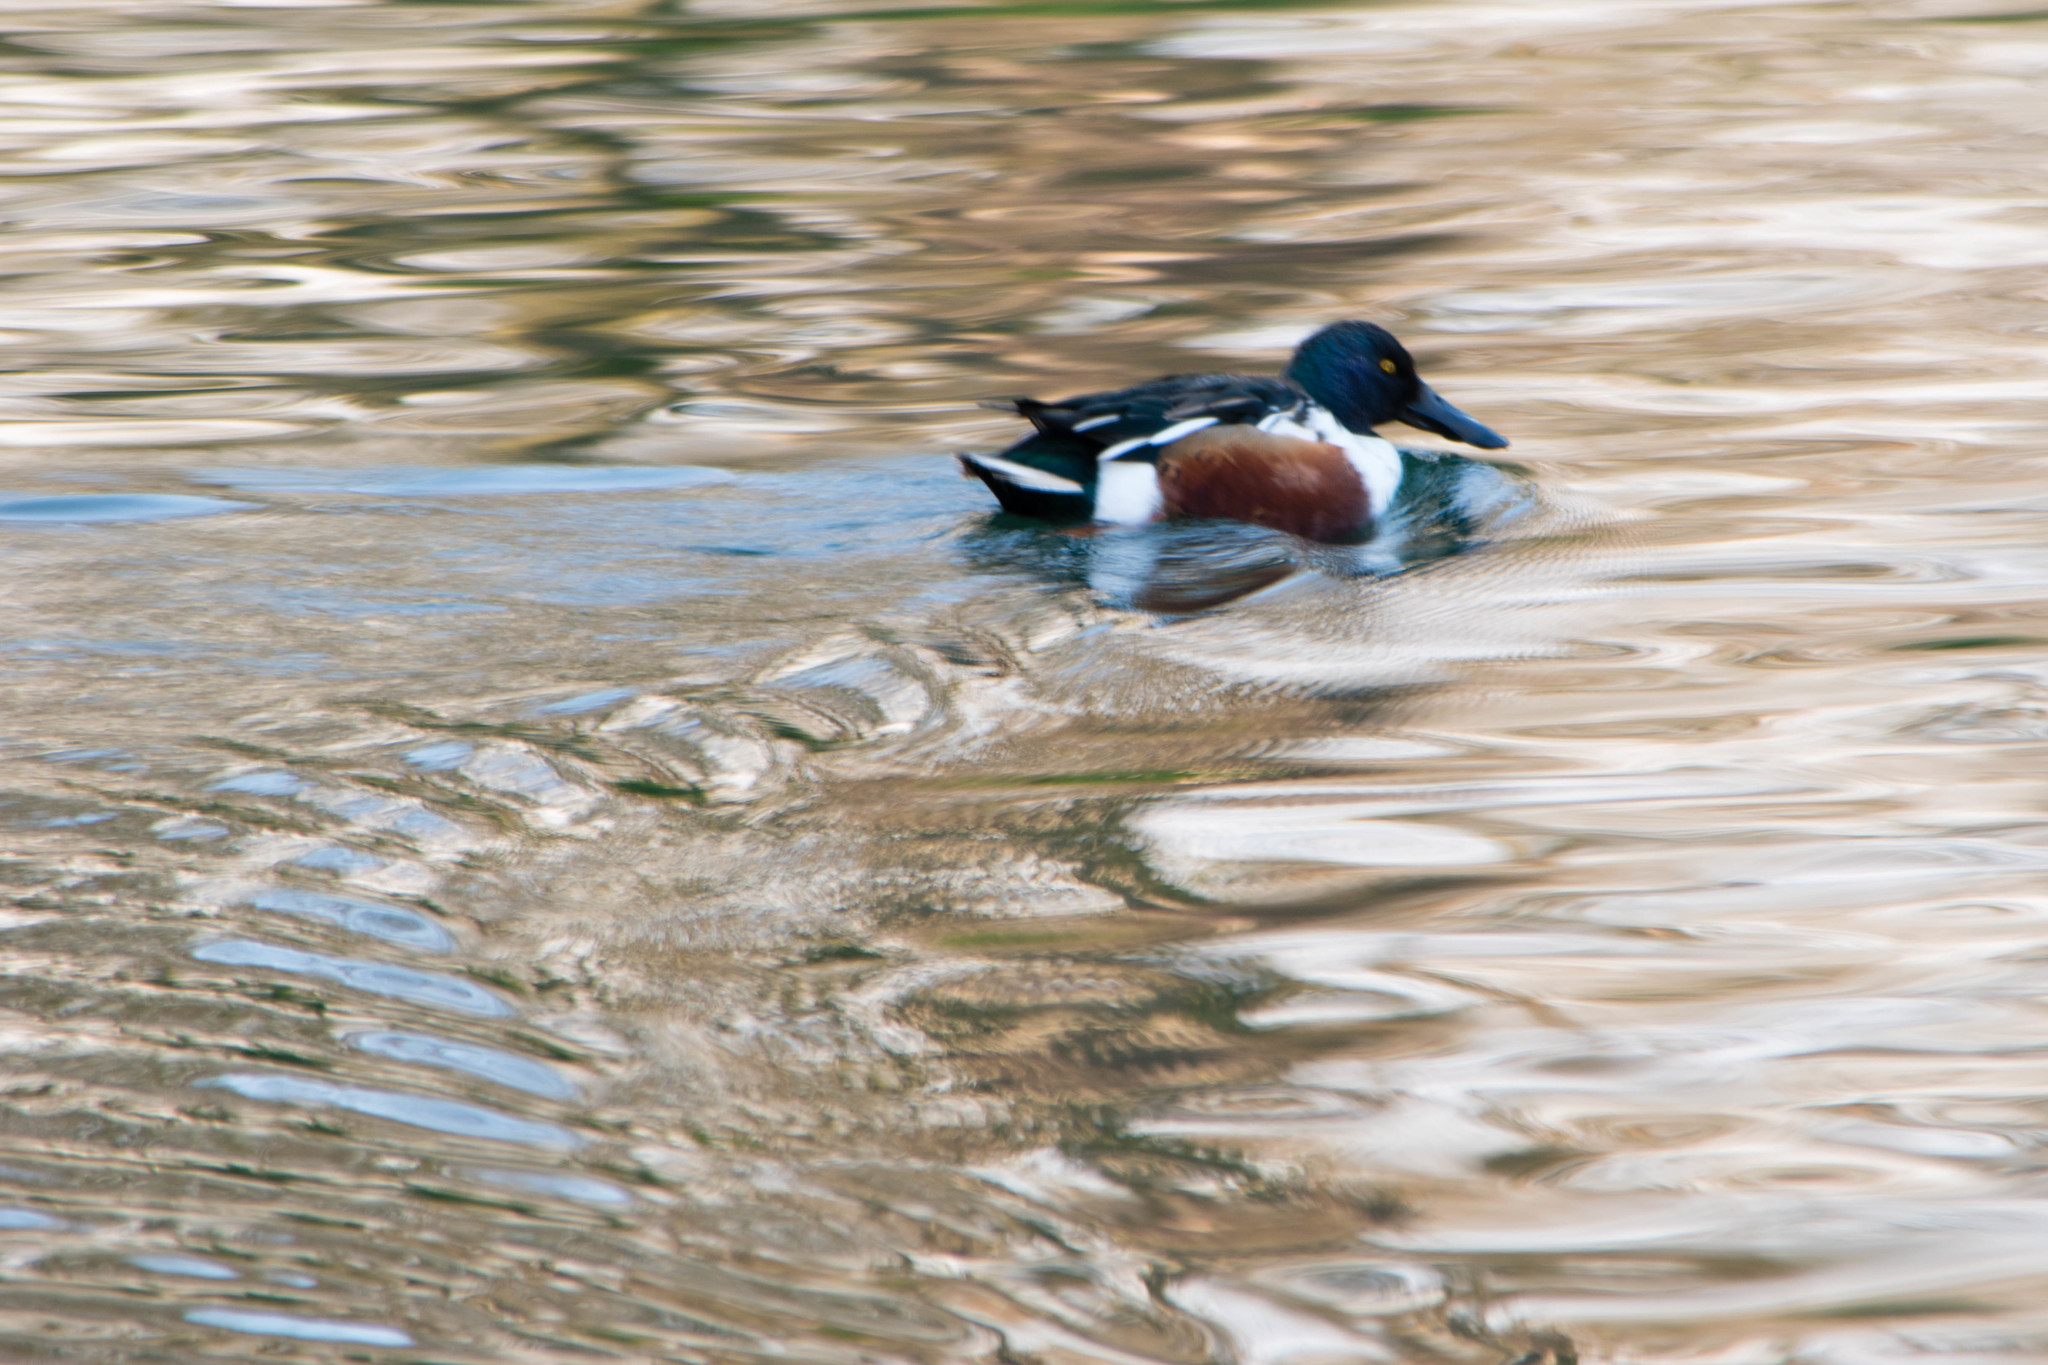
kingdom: Animalia
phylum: Chordata
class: Aves
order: Anseriformes
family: Anatidae
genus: Spatula
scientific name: Spatula clypeata
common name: Northern shoveler
